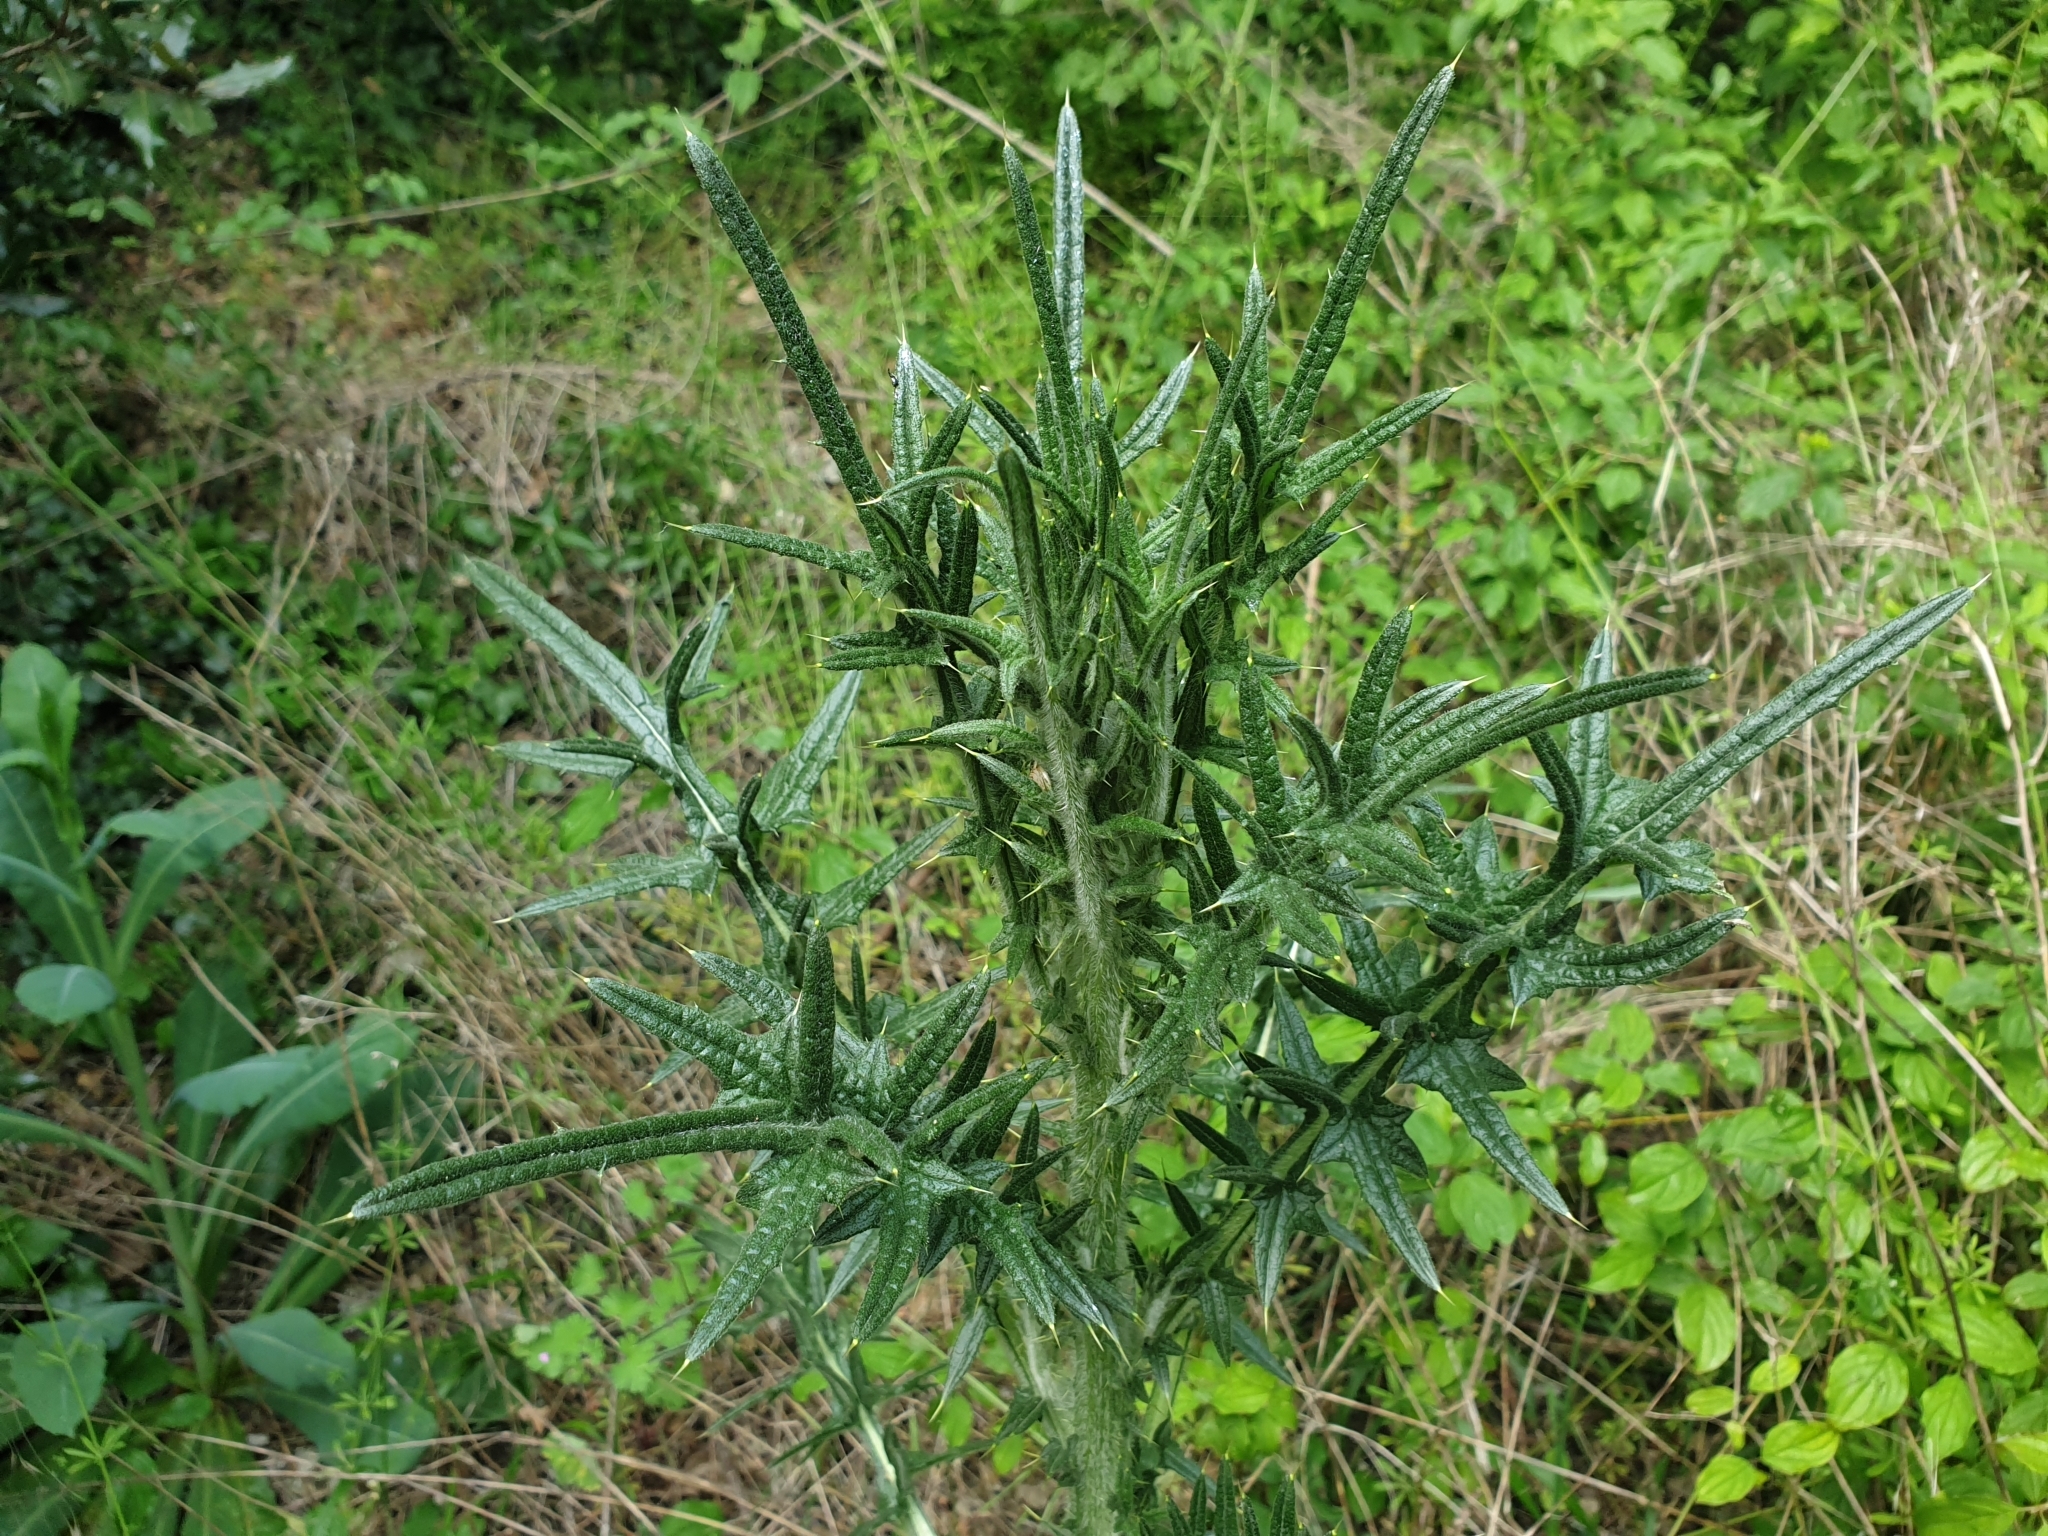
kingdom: Plantae
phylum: Tracheophyta
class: Magnoliopsida
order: Asterales
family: Asteraceae
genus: Cirsium
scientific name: Cirsium vulgare
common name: Bull thistle
